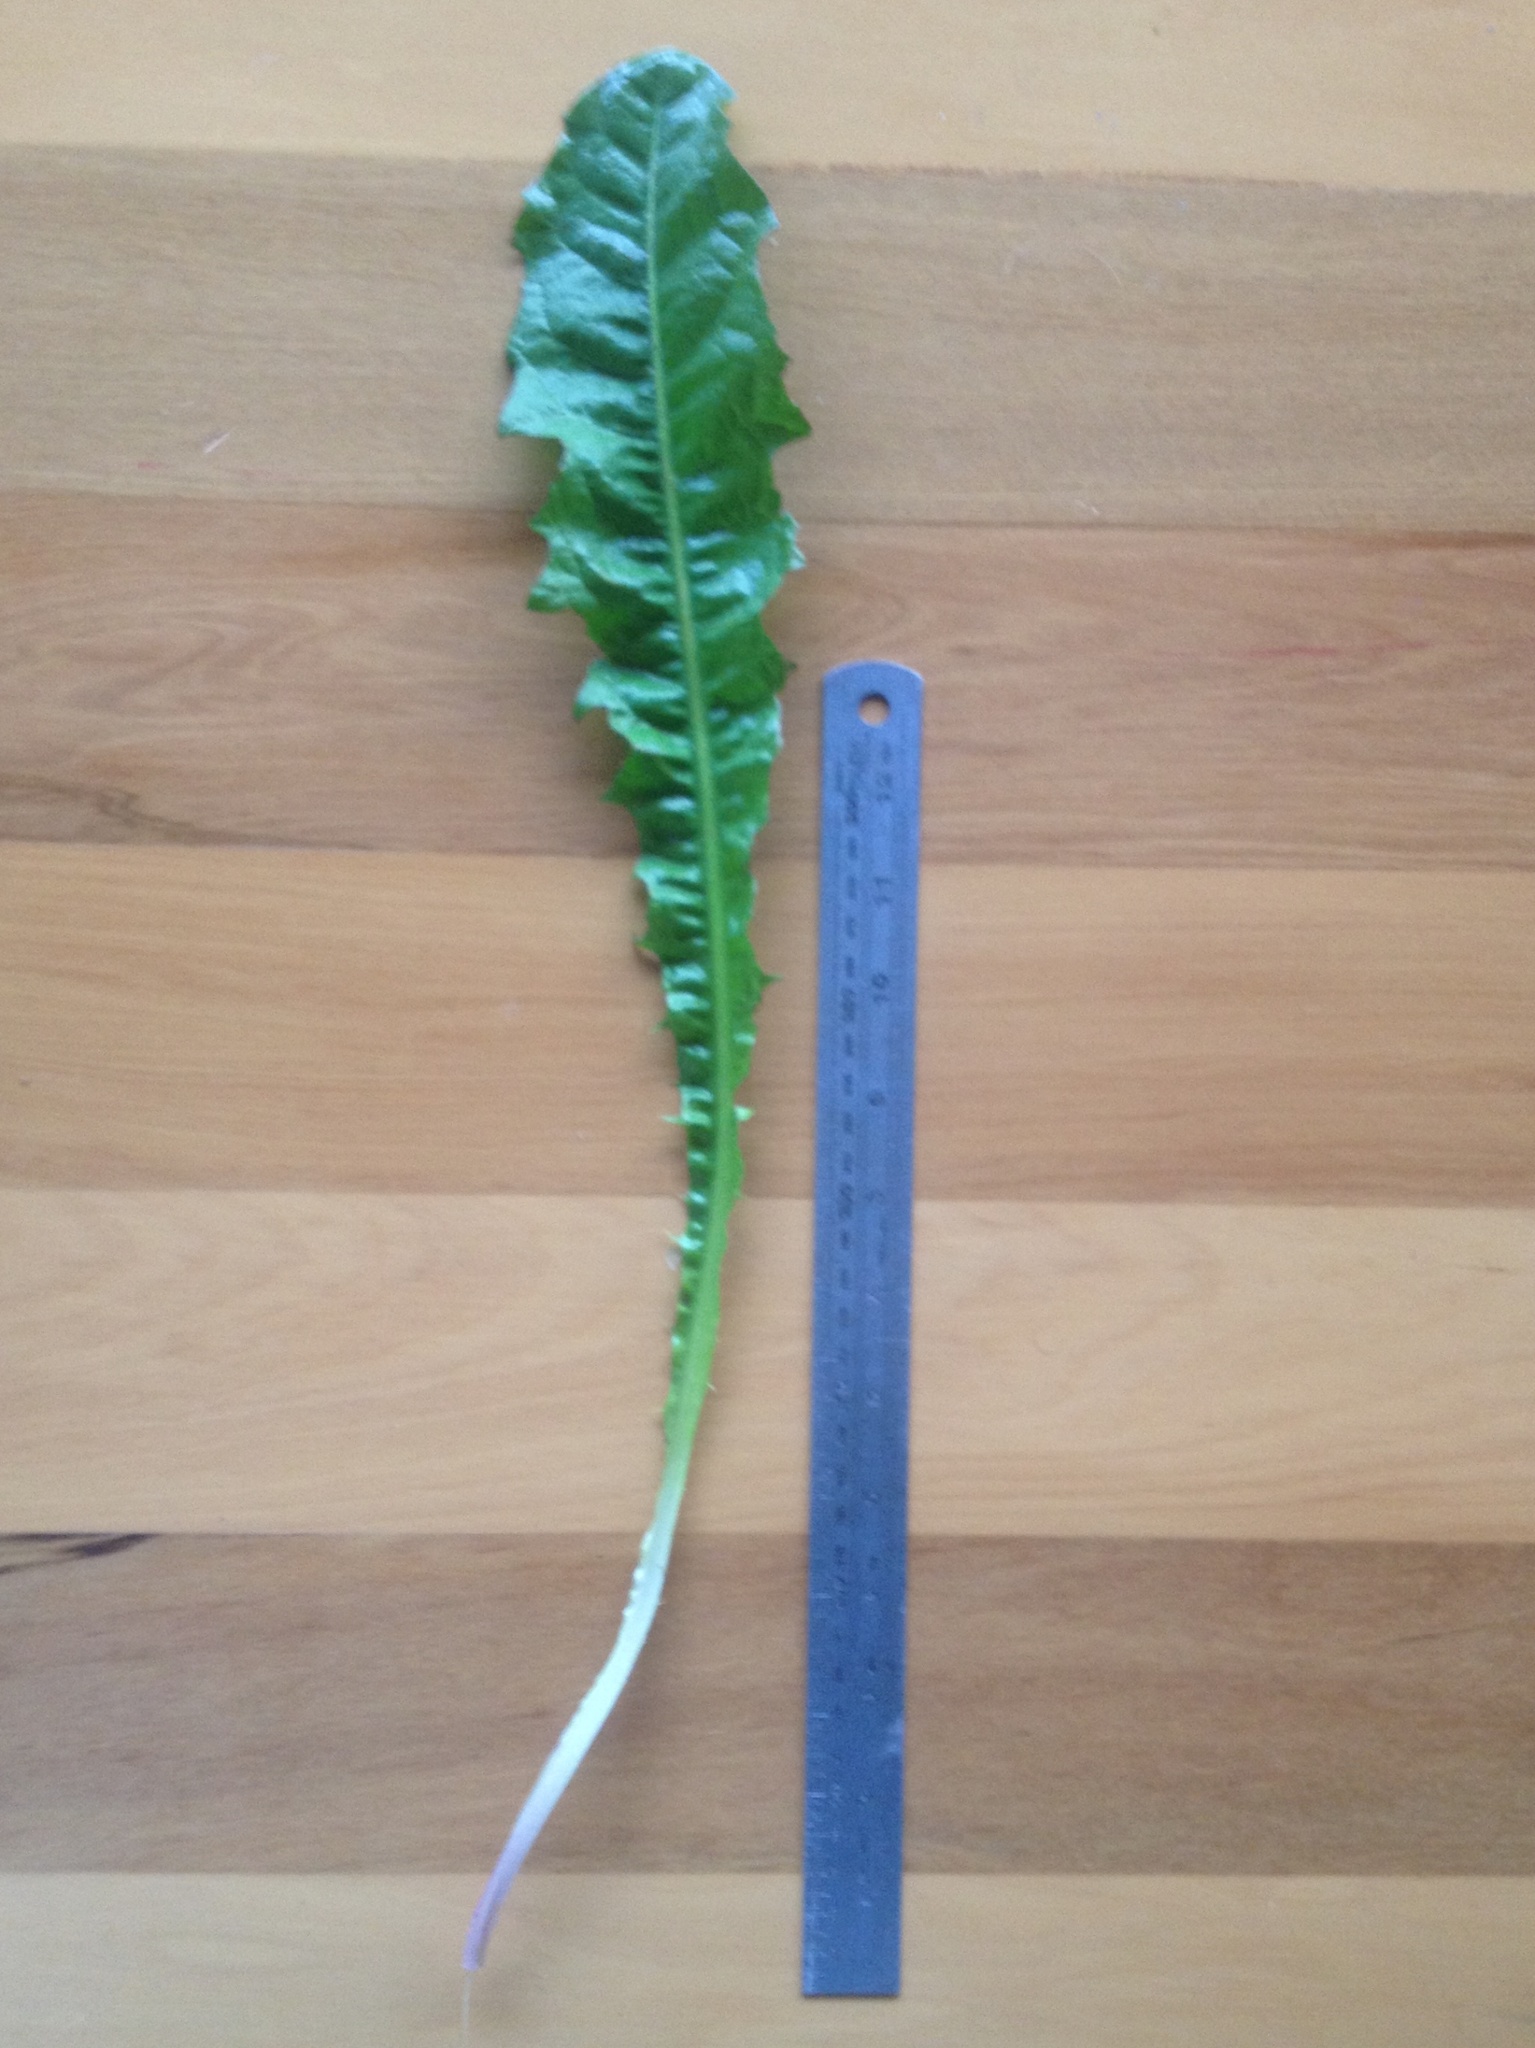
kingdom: Plantae
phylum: Tracheophyta
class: Magnoliopsida
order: Asterales
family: Asteraceae
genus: Taraxacum
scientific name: Taraxacum officinale
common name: Common dandelion
